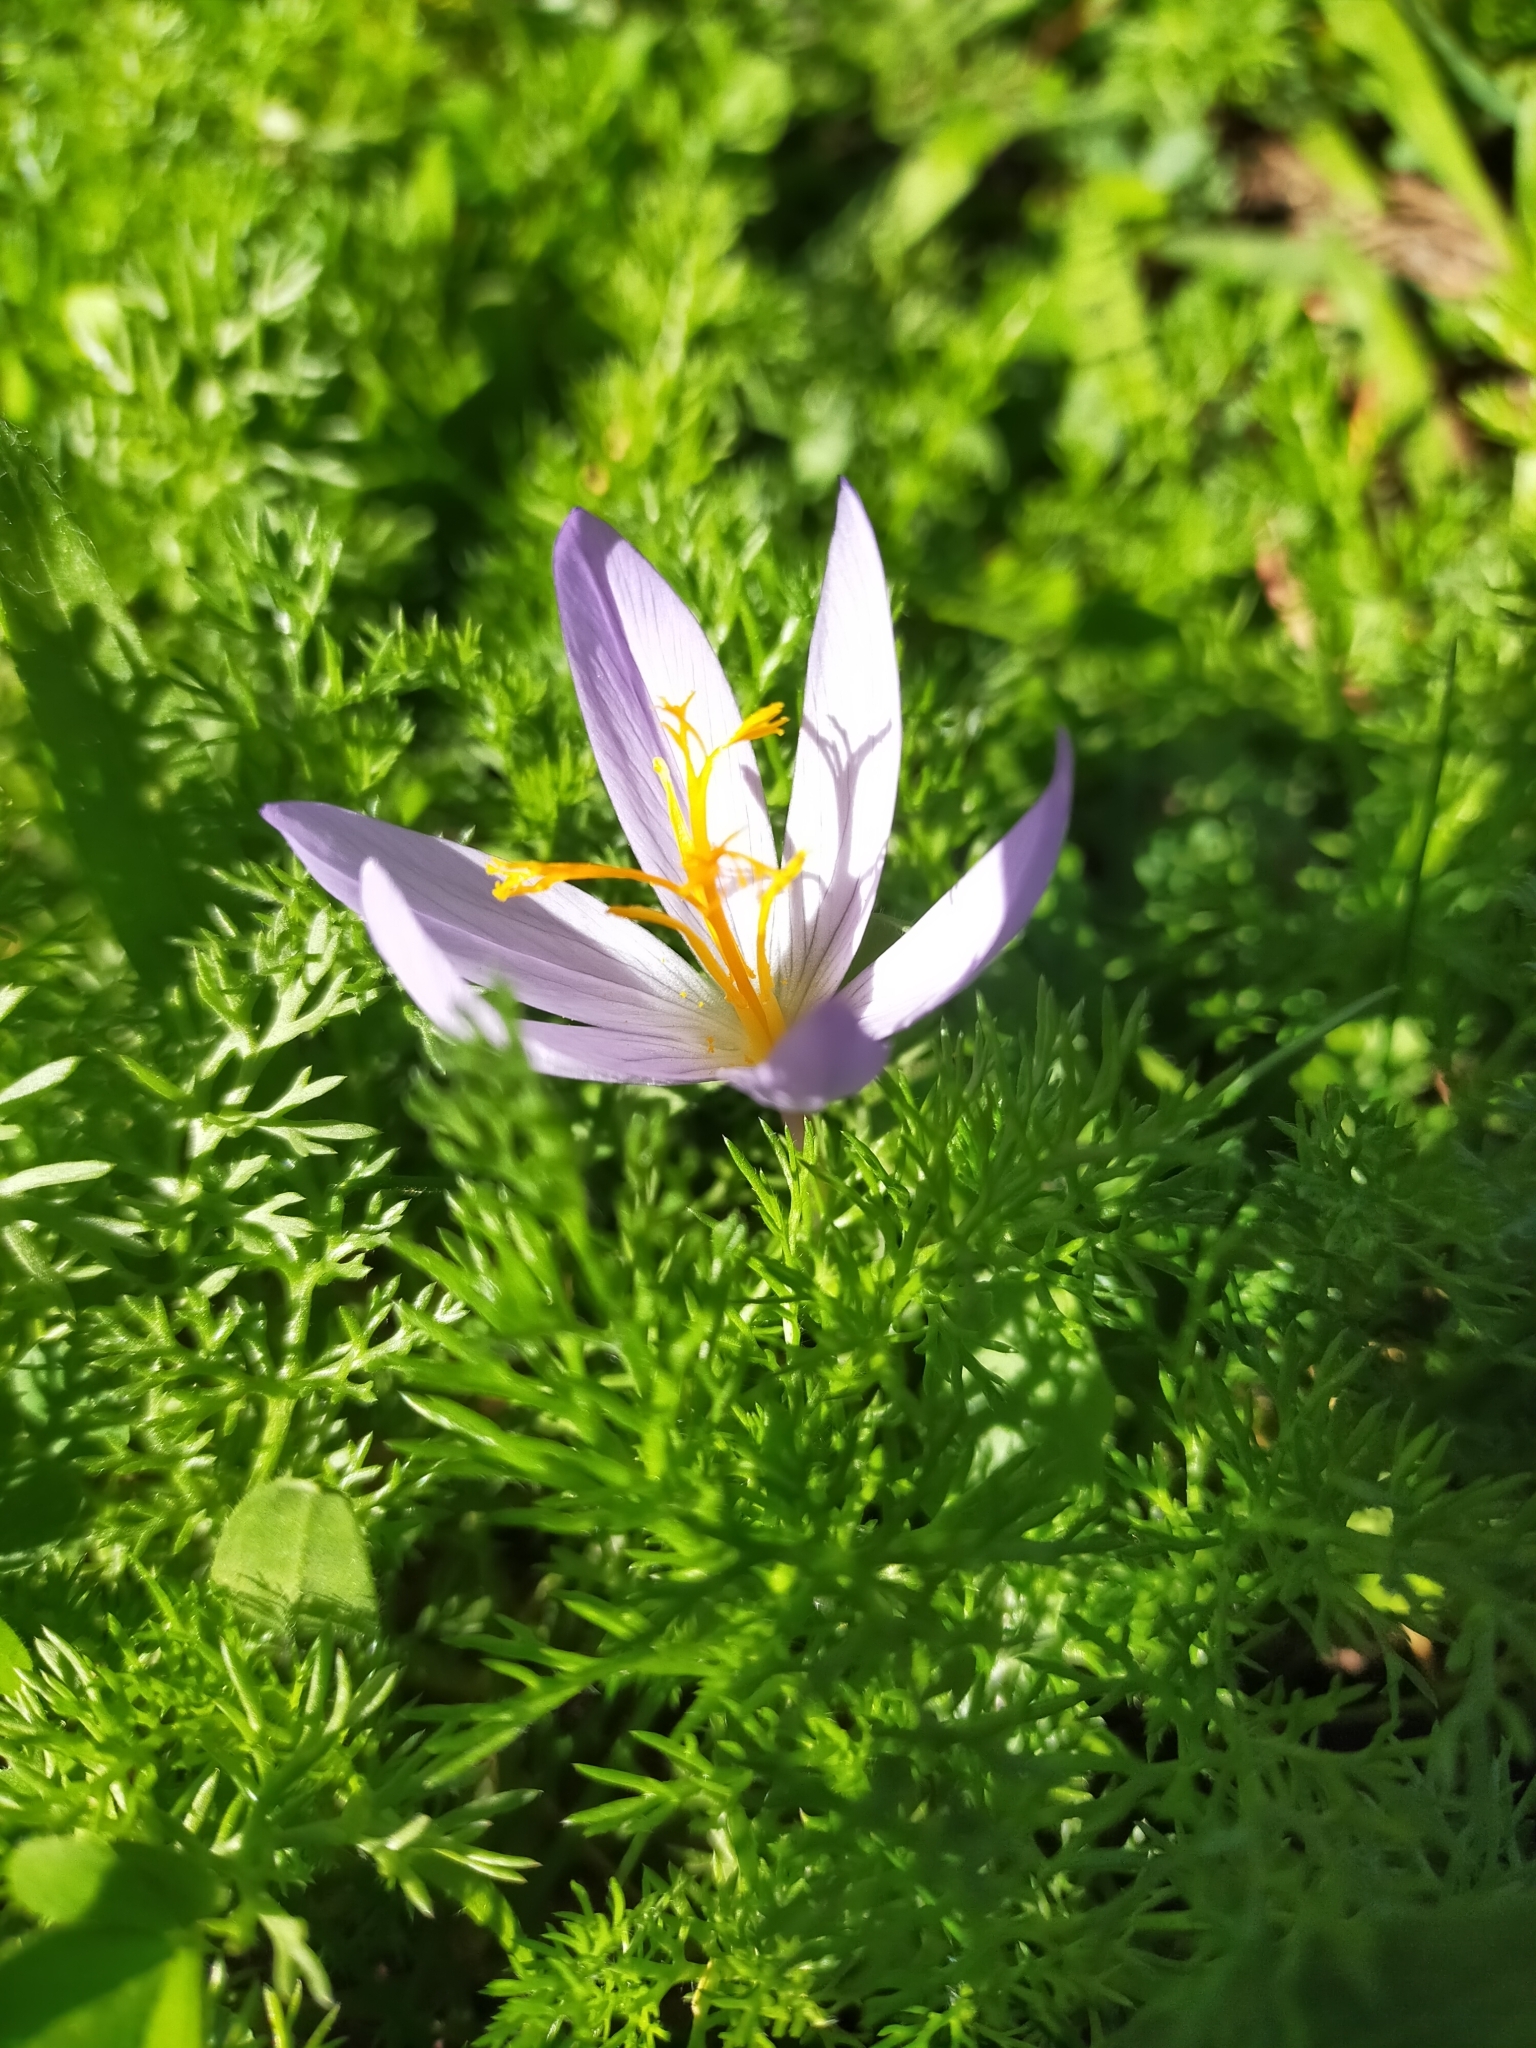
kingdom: Plantae
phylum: Tracheophyta
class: Liliopsida
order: Asparagales
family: Iridaceae
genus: Crocus
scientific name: Crocus serotinus
